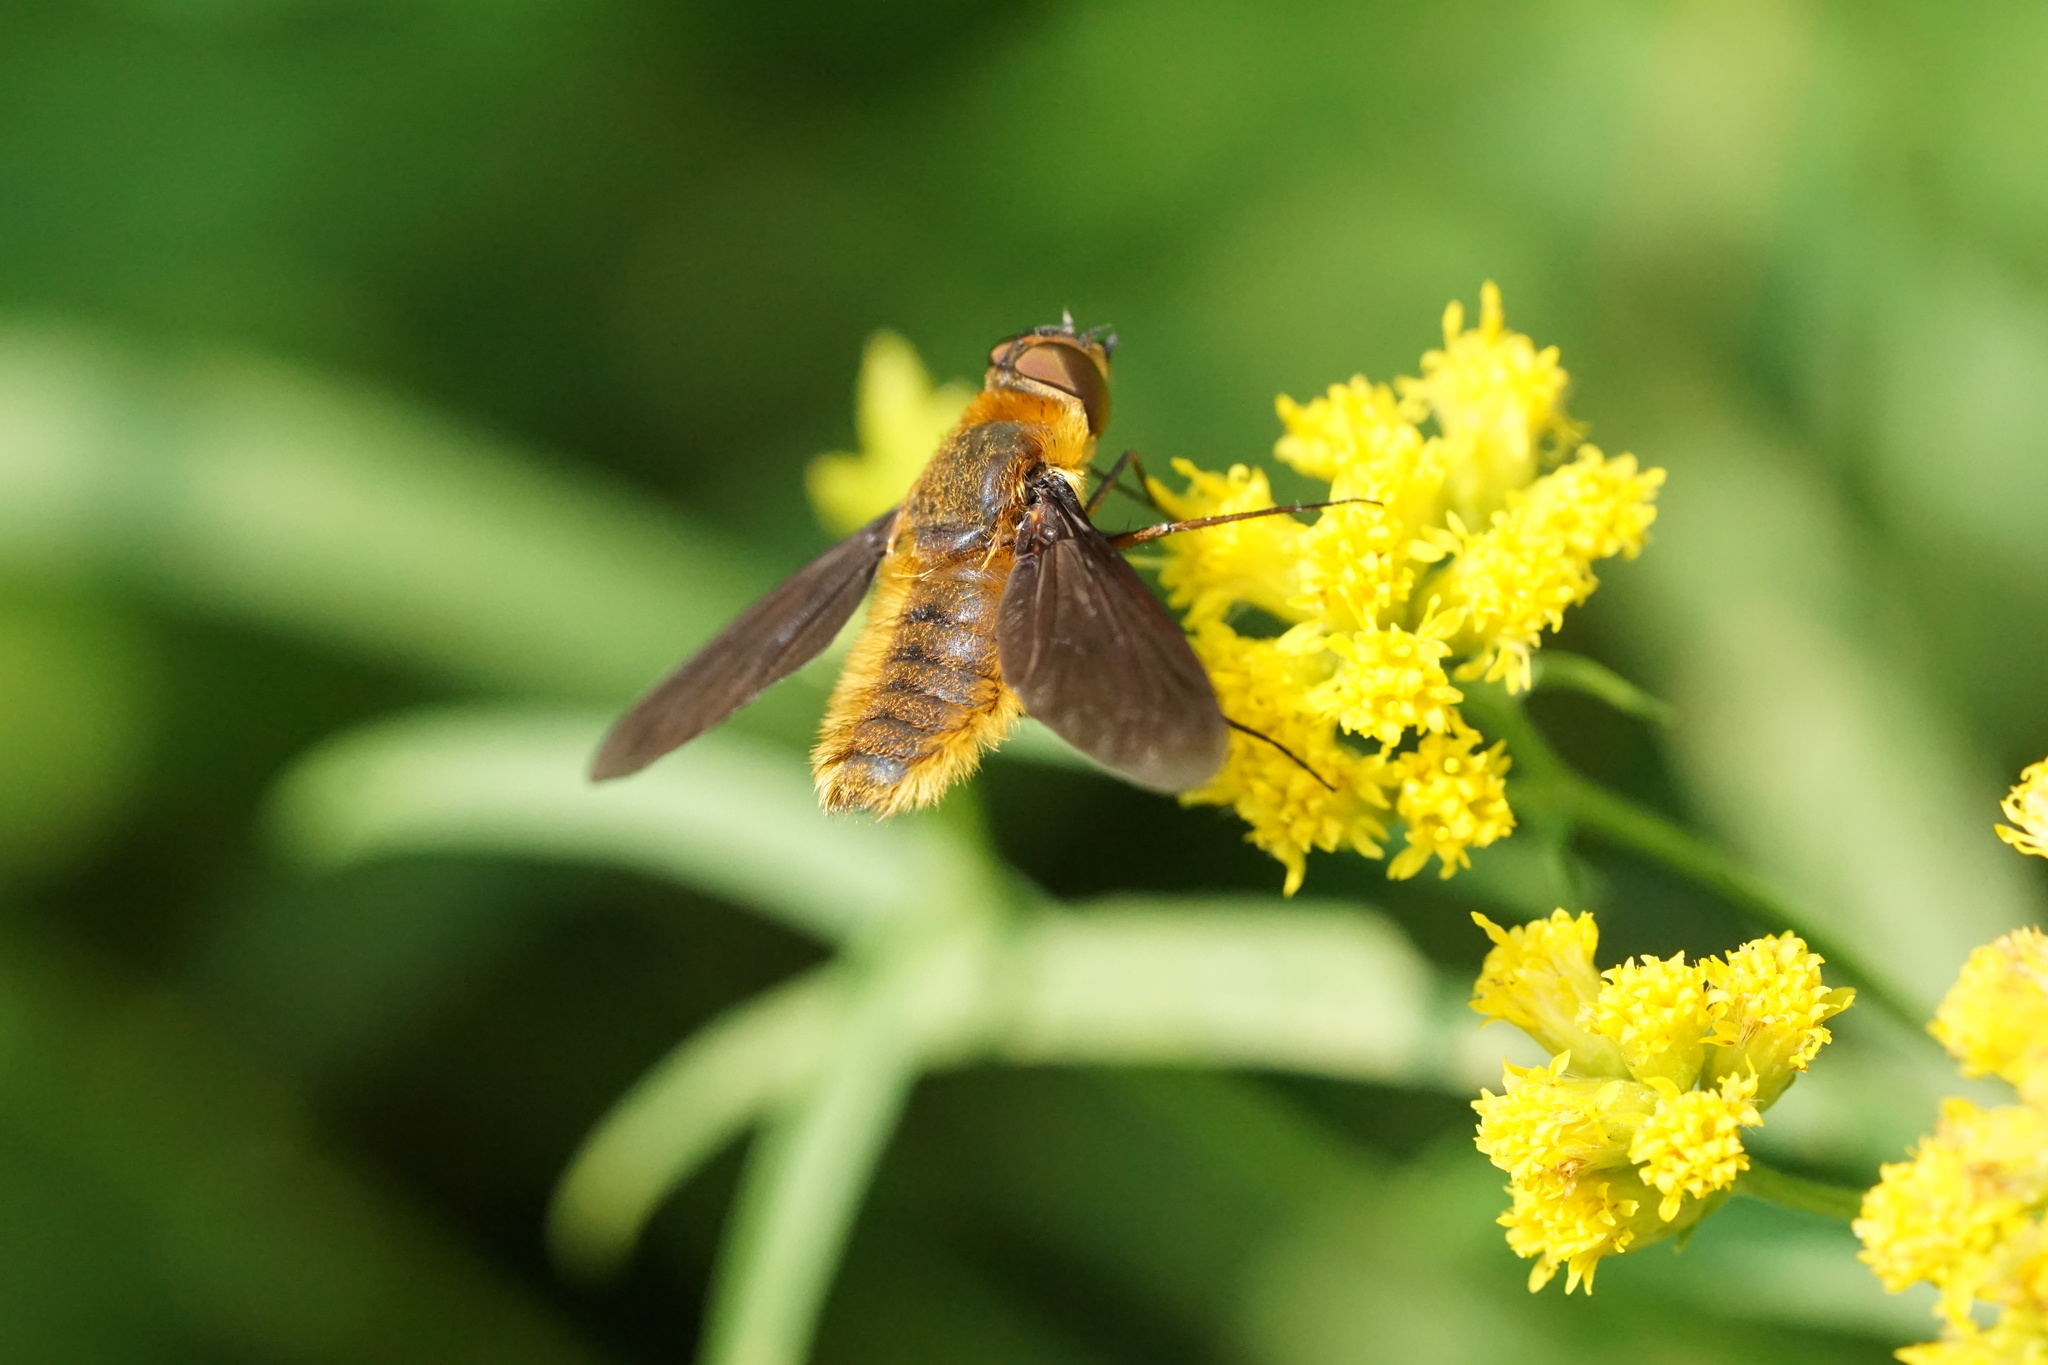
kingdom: Animalia
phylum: Arthropoda
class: Insecta
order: Diptera
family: Bombyliidae
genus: Poecilanthrax
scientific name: Poecilanthrax tegminipennis
